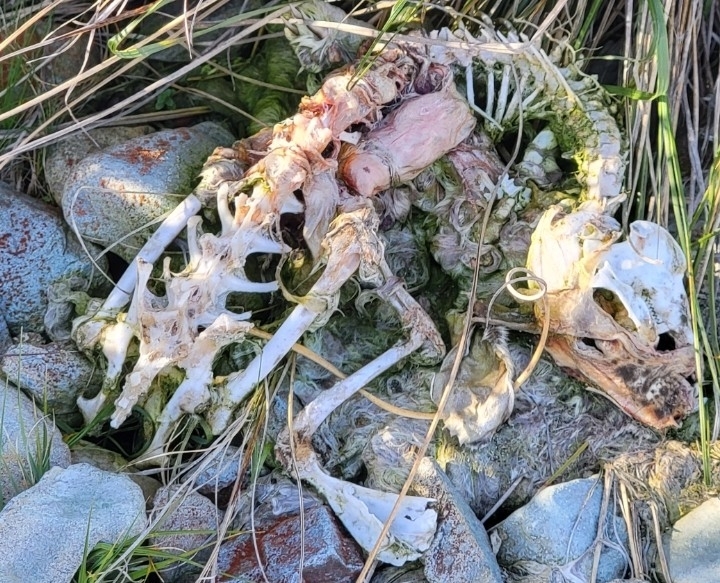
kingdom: Animalia
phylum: Chordata
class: Mammalia
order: Lagomorpha
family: Leporidae
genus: Lepus
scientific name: Lepus europaeus
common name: European hare
